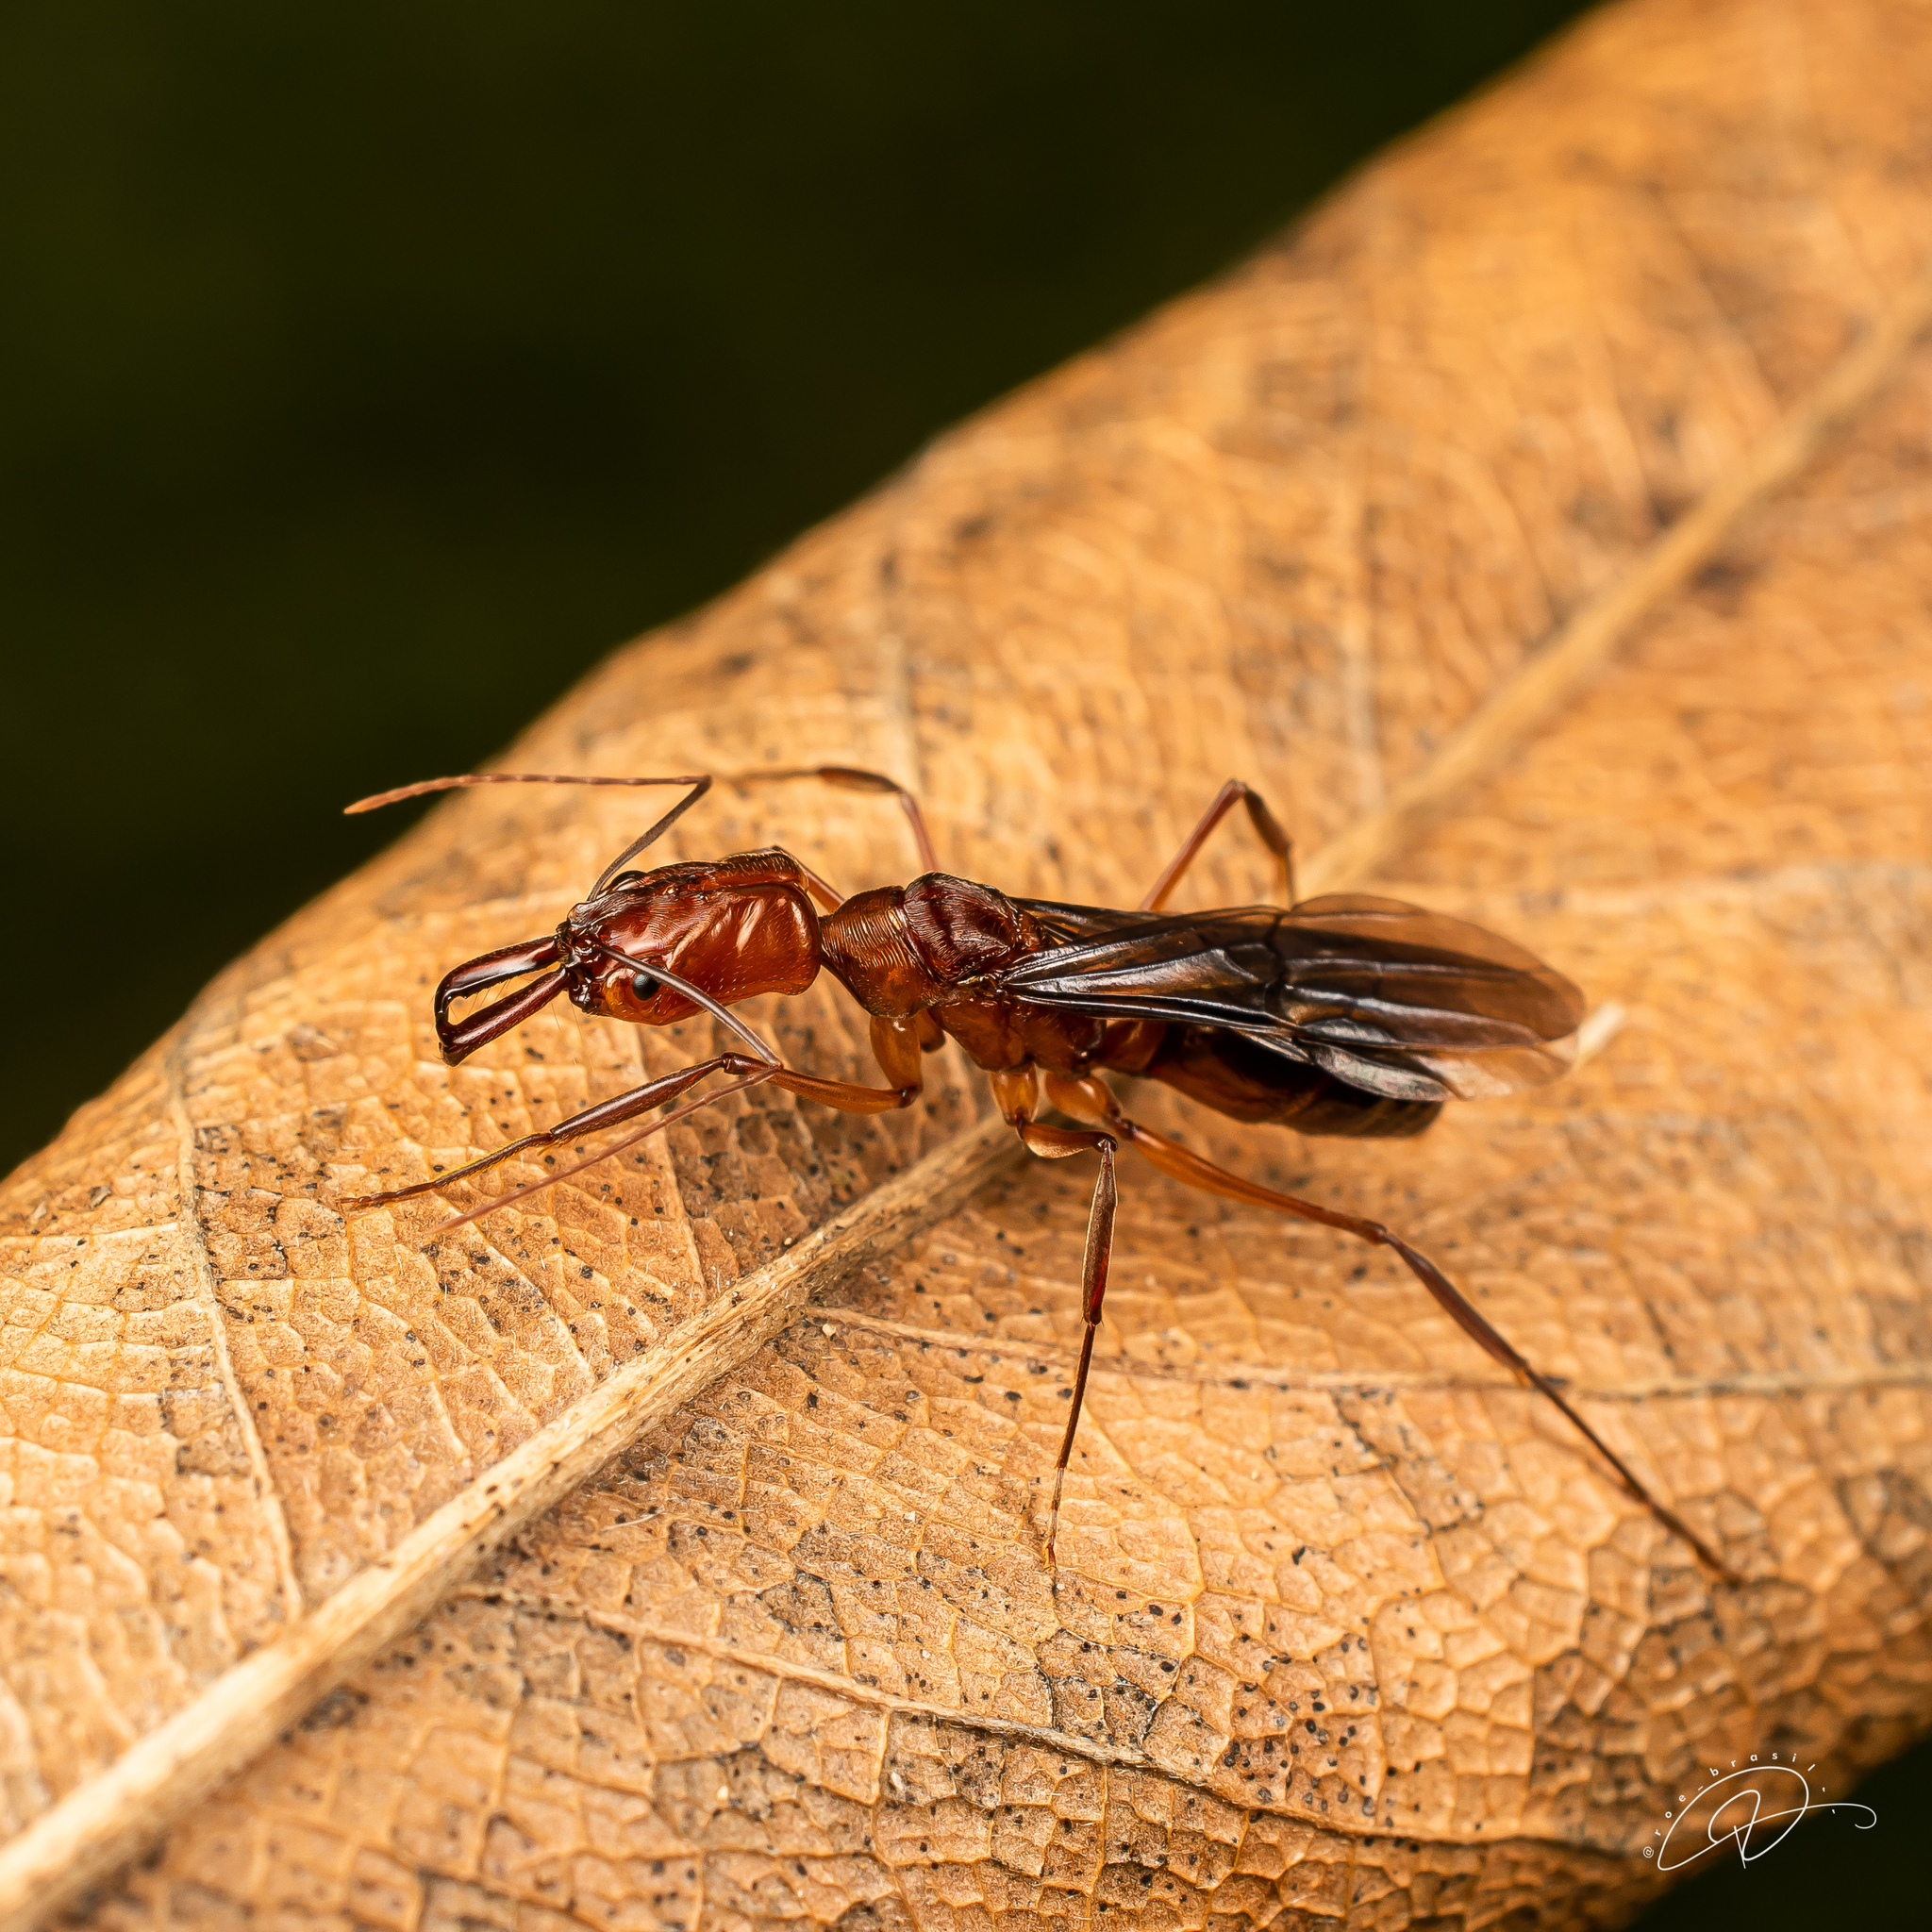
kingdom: Animalia
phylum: Arthropoda
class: Insecta
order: Hymenoptera
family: Formicidae
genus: Odontomachus
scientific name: Odontomachus affinis
